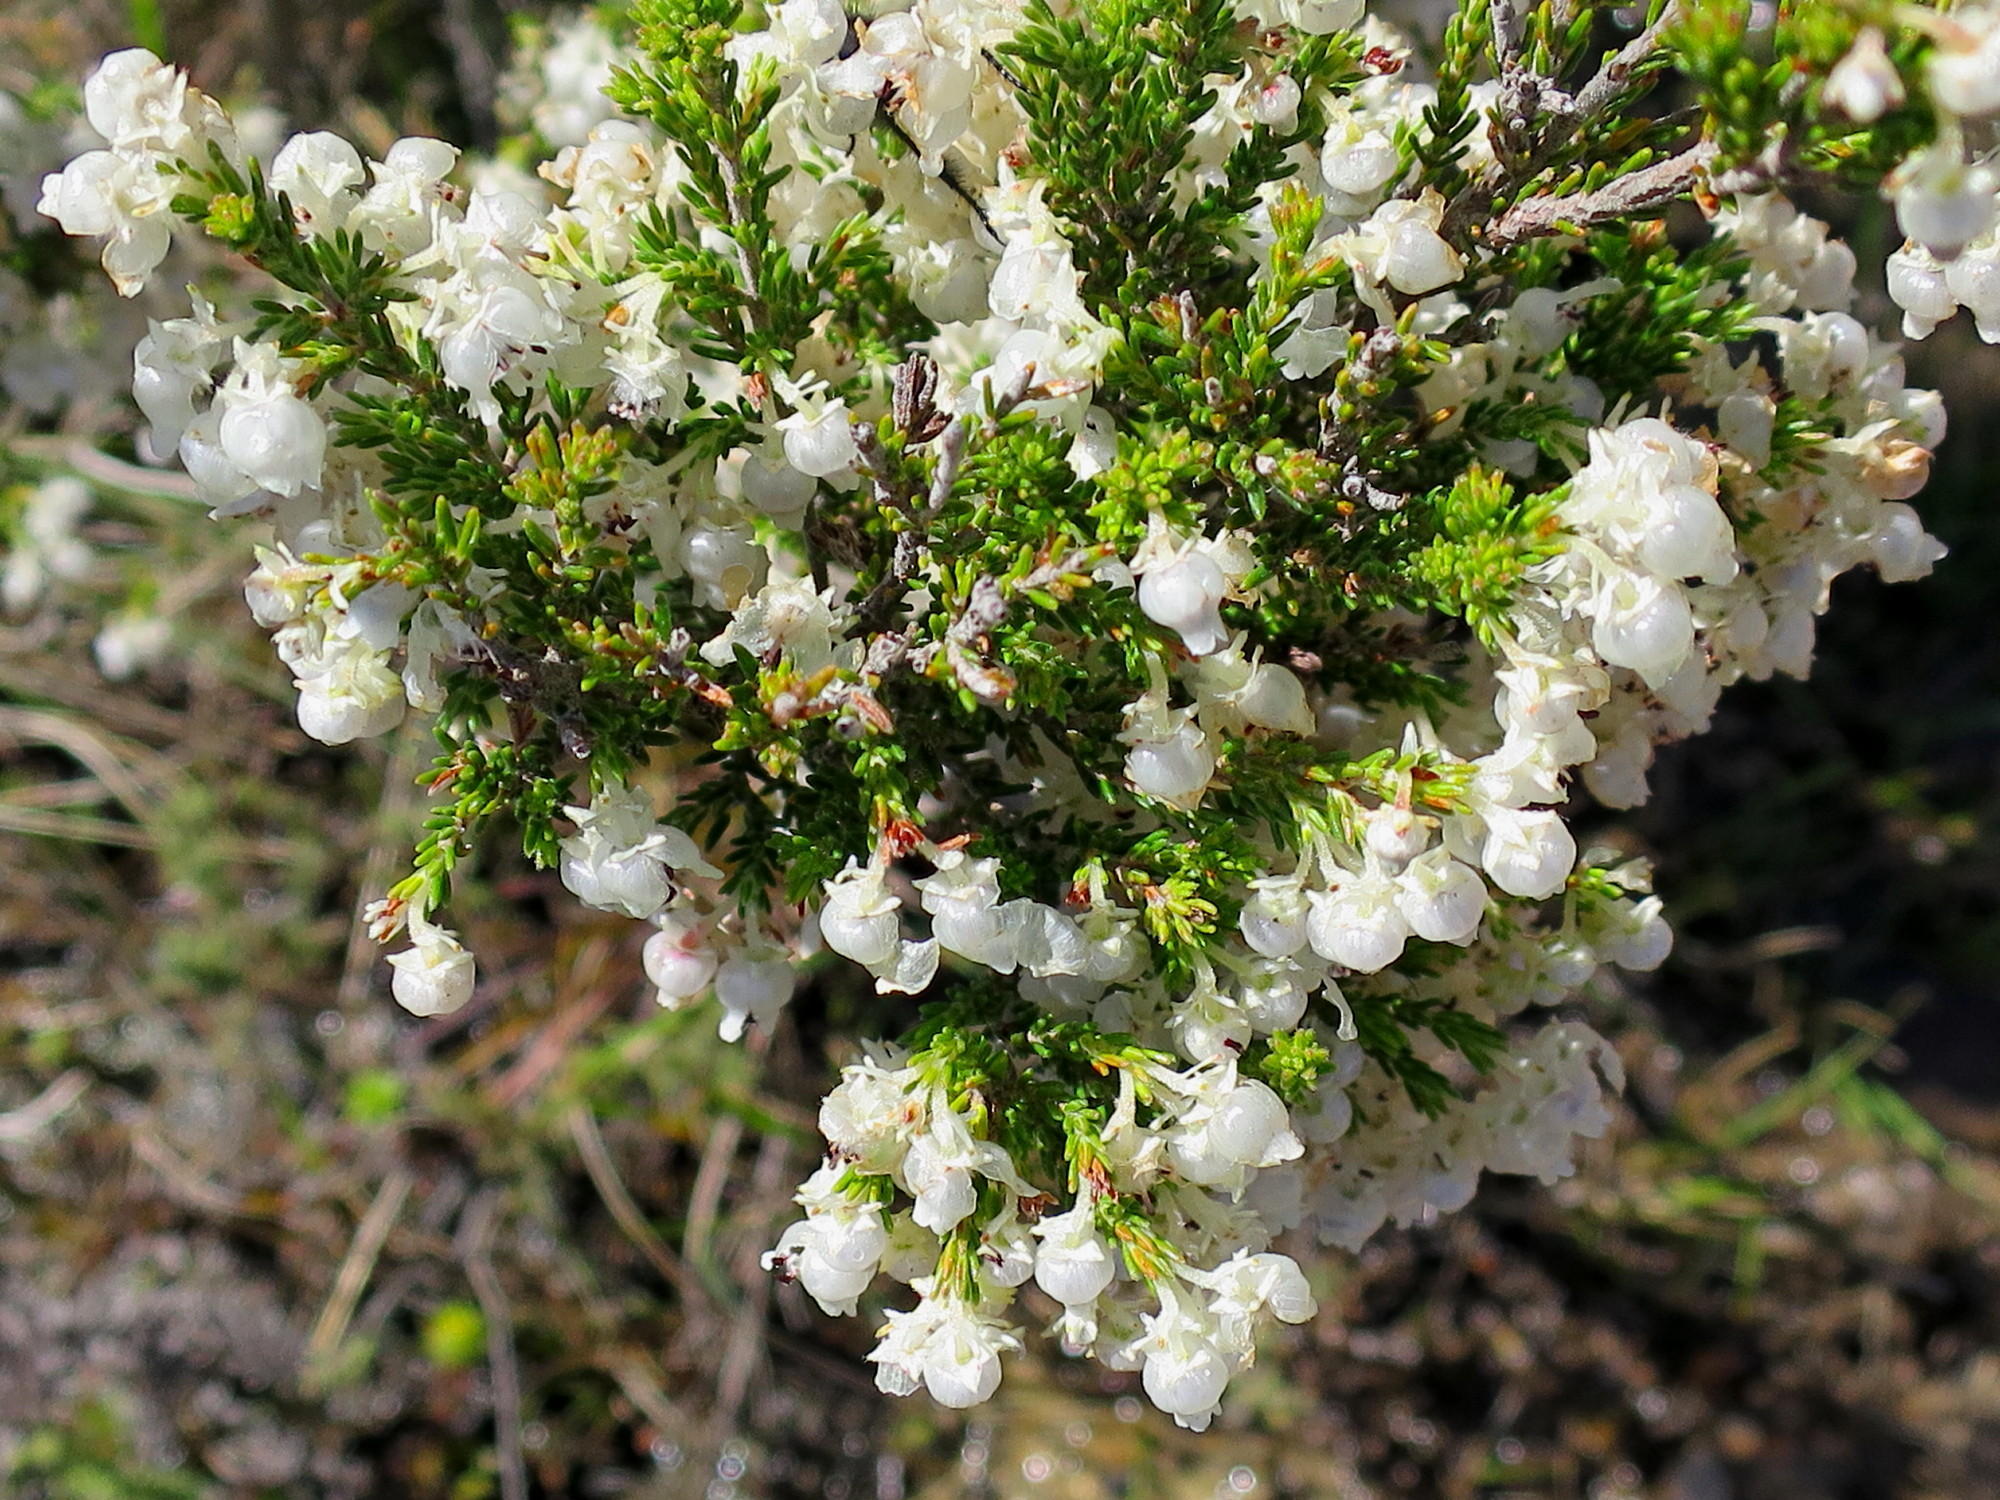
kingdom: Plantae
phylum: Tracheophyta
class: Magnoliopsida
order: Ericales
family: Ericaceae
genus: Erica
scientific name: Erica glomiflora
